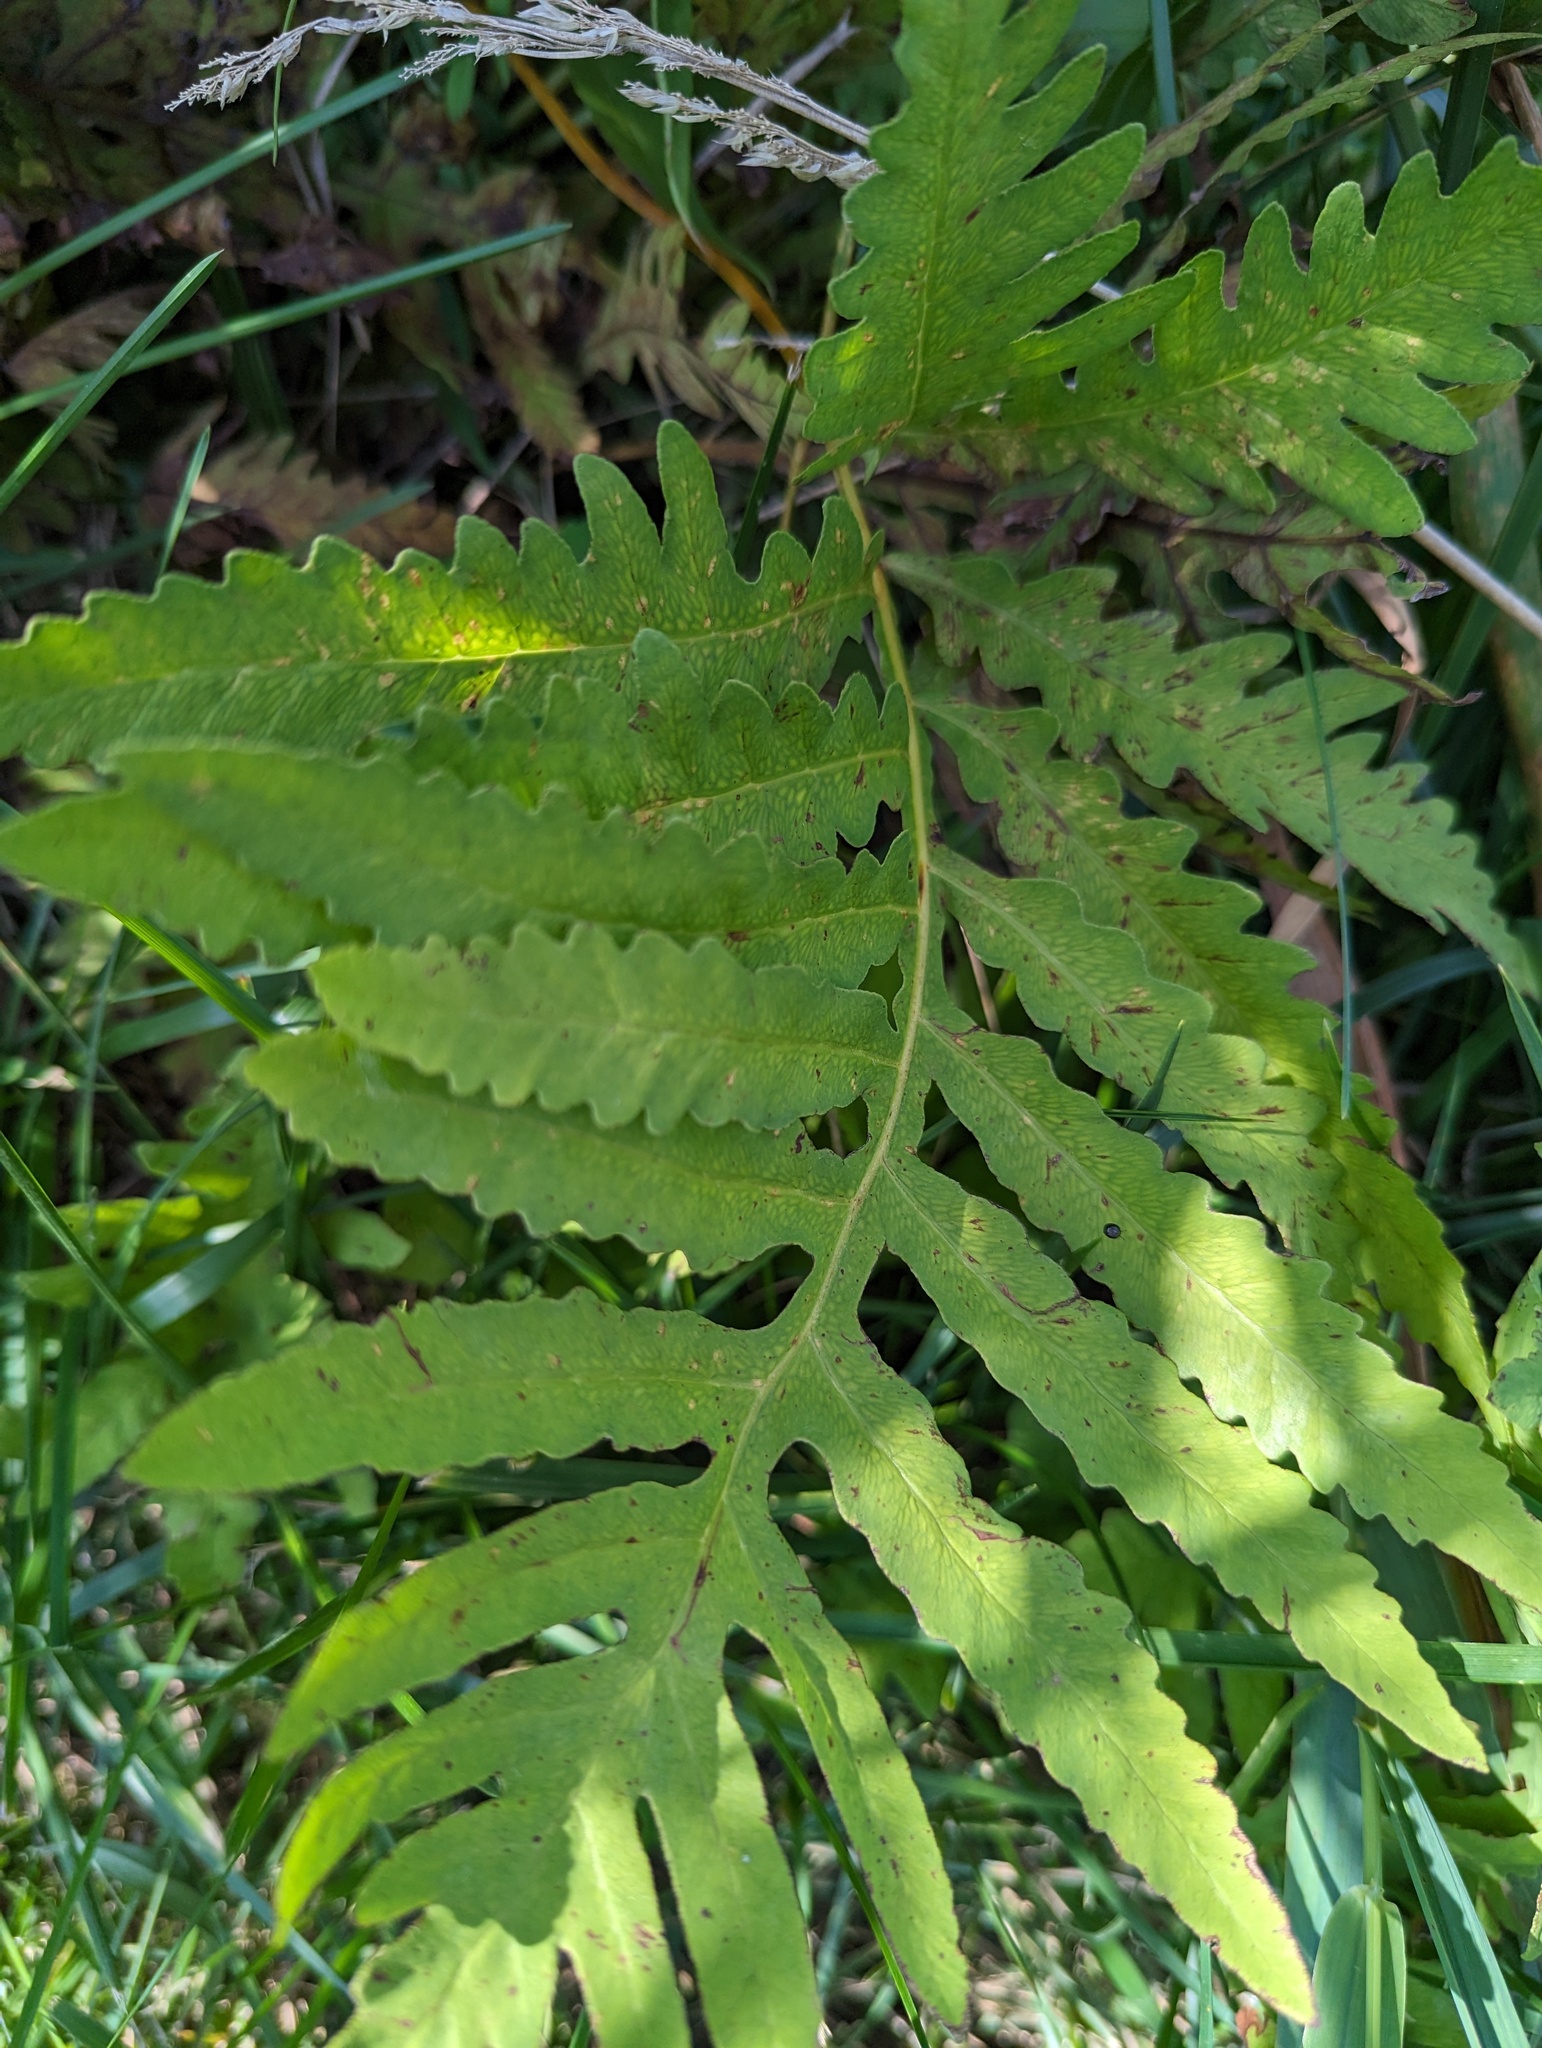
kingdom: Plantae
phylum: Tracheophyta
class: Polypodiopsida
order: Polypodiales
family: Onocleaceae
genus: Onoclea
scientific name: Onoclea sensibilis
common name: Sensitive fern
